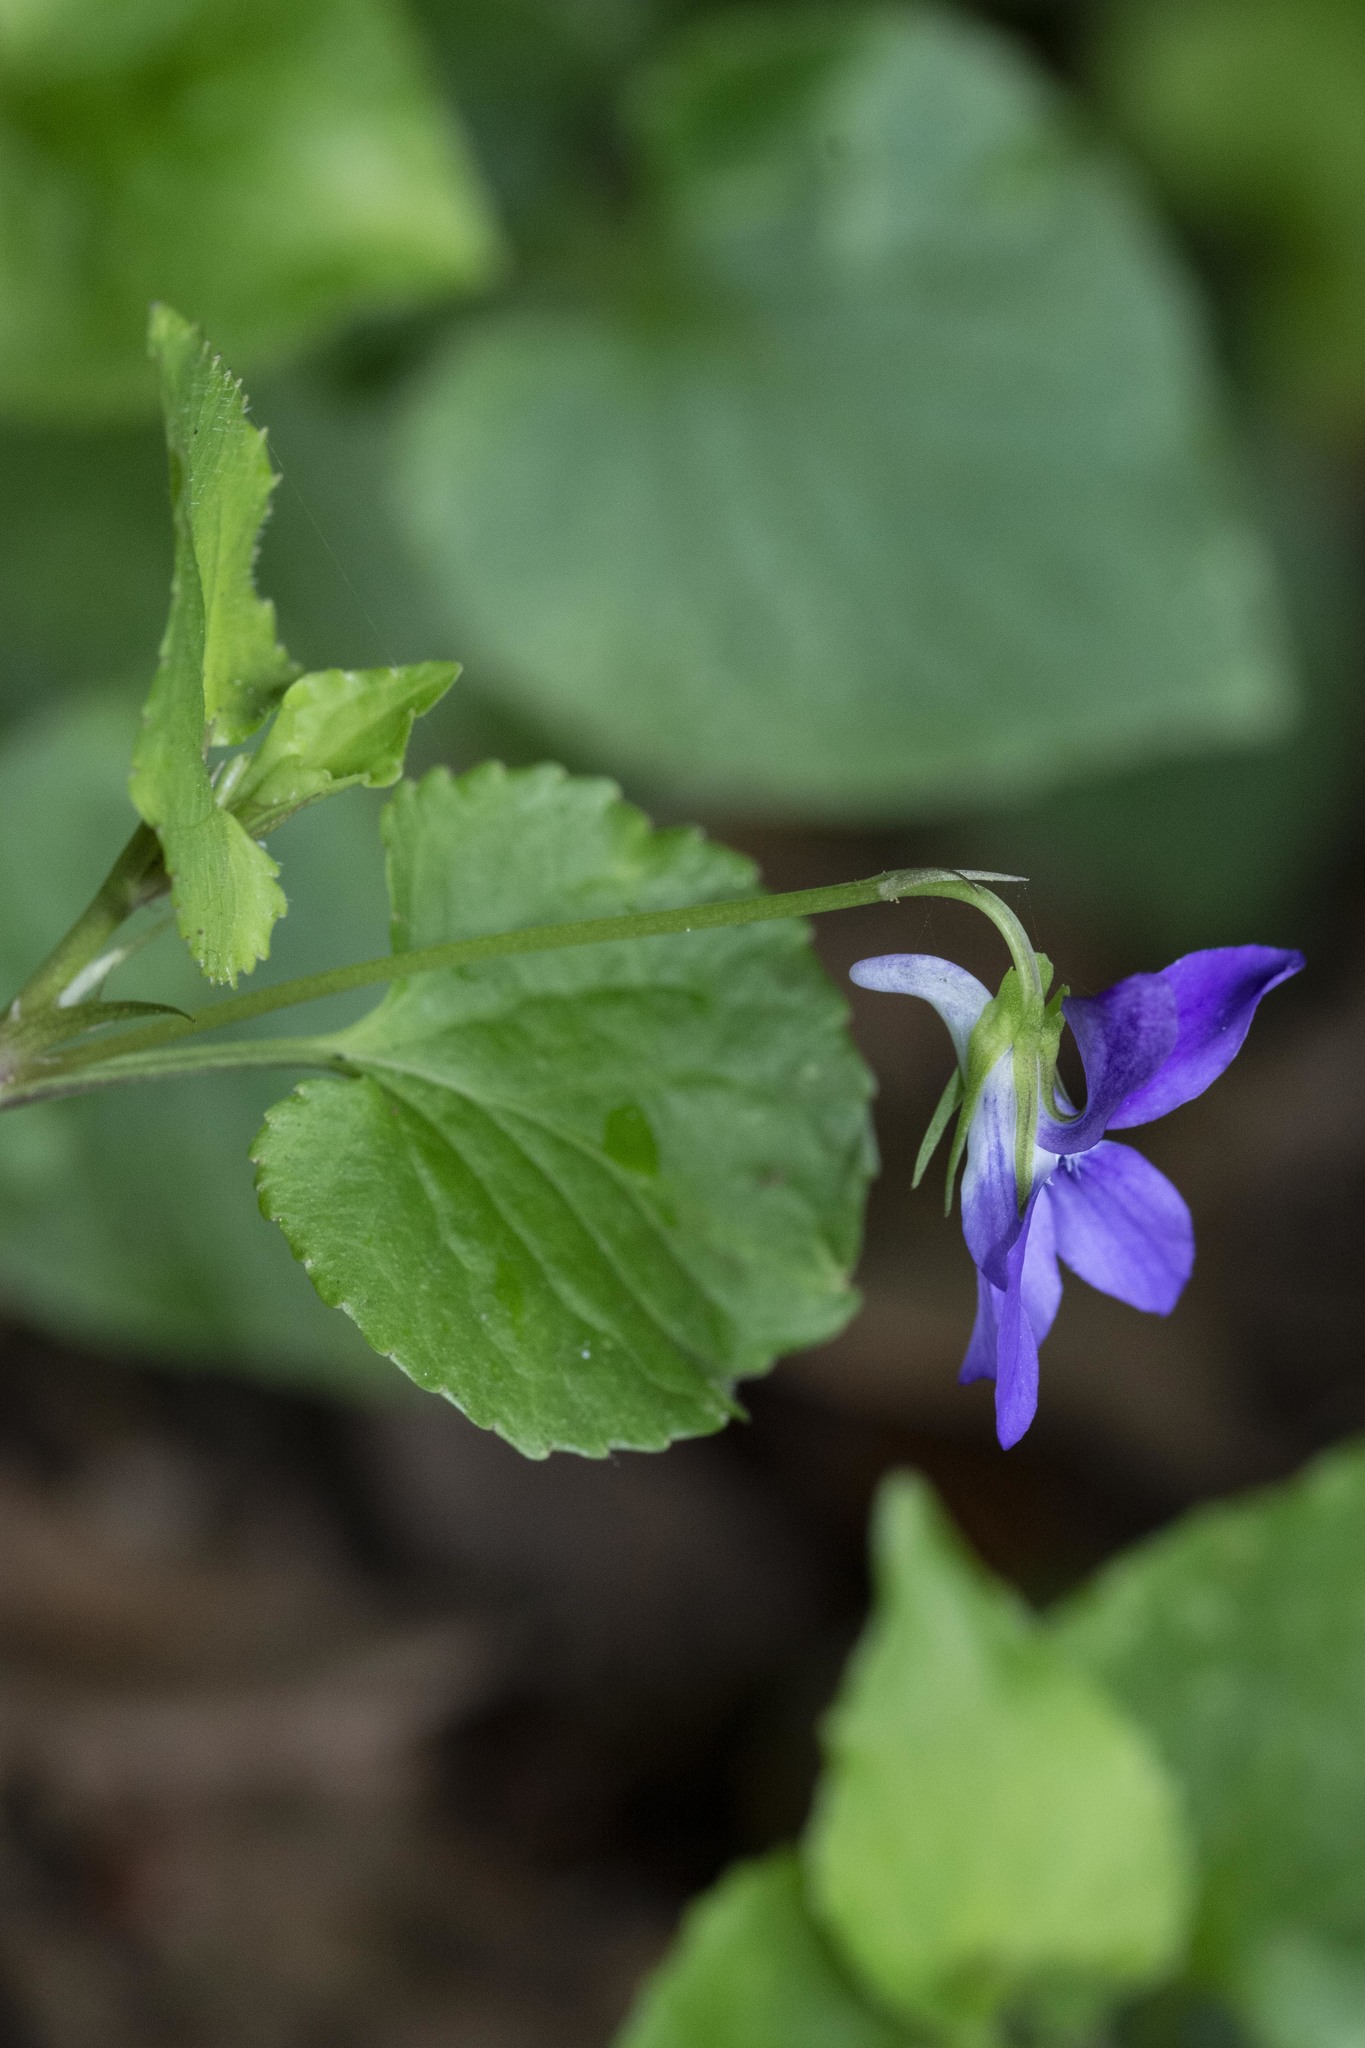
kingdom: Plantae
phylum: Tracheophyta
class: Magnoliopsida
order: Malpighiales
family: Violaceae
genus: Viola
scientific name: Viola anagae
